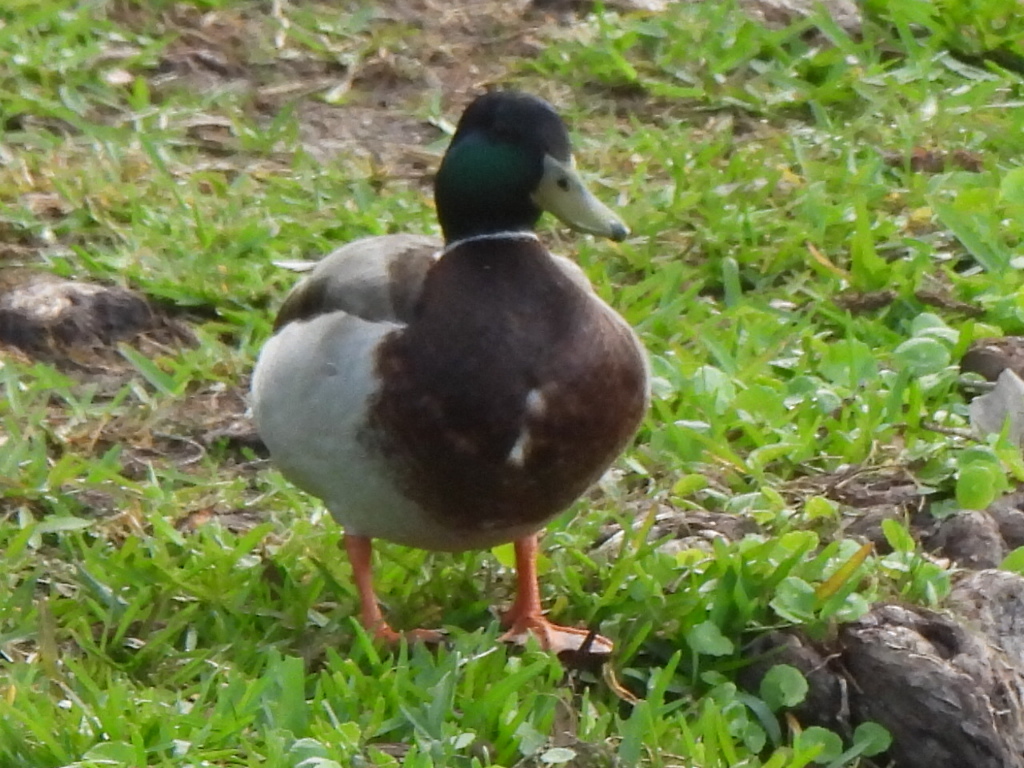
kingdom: Animalia
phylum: Chordata
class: Aves
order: Anseriformes
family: Anatidae
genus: Anas
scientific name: Anas platyrhynchos
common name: Mallard
